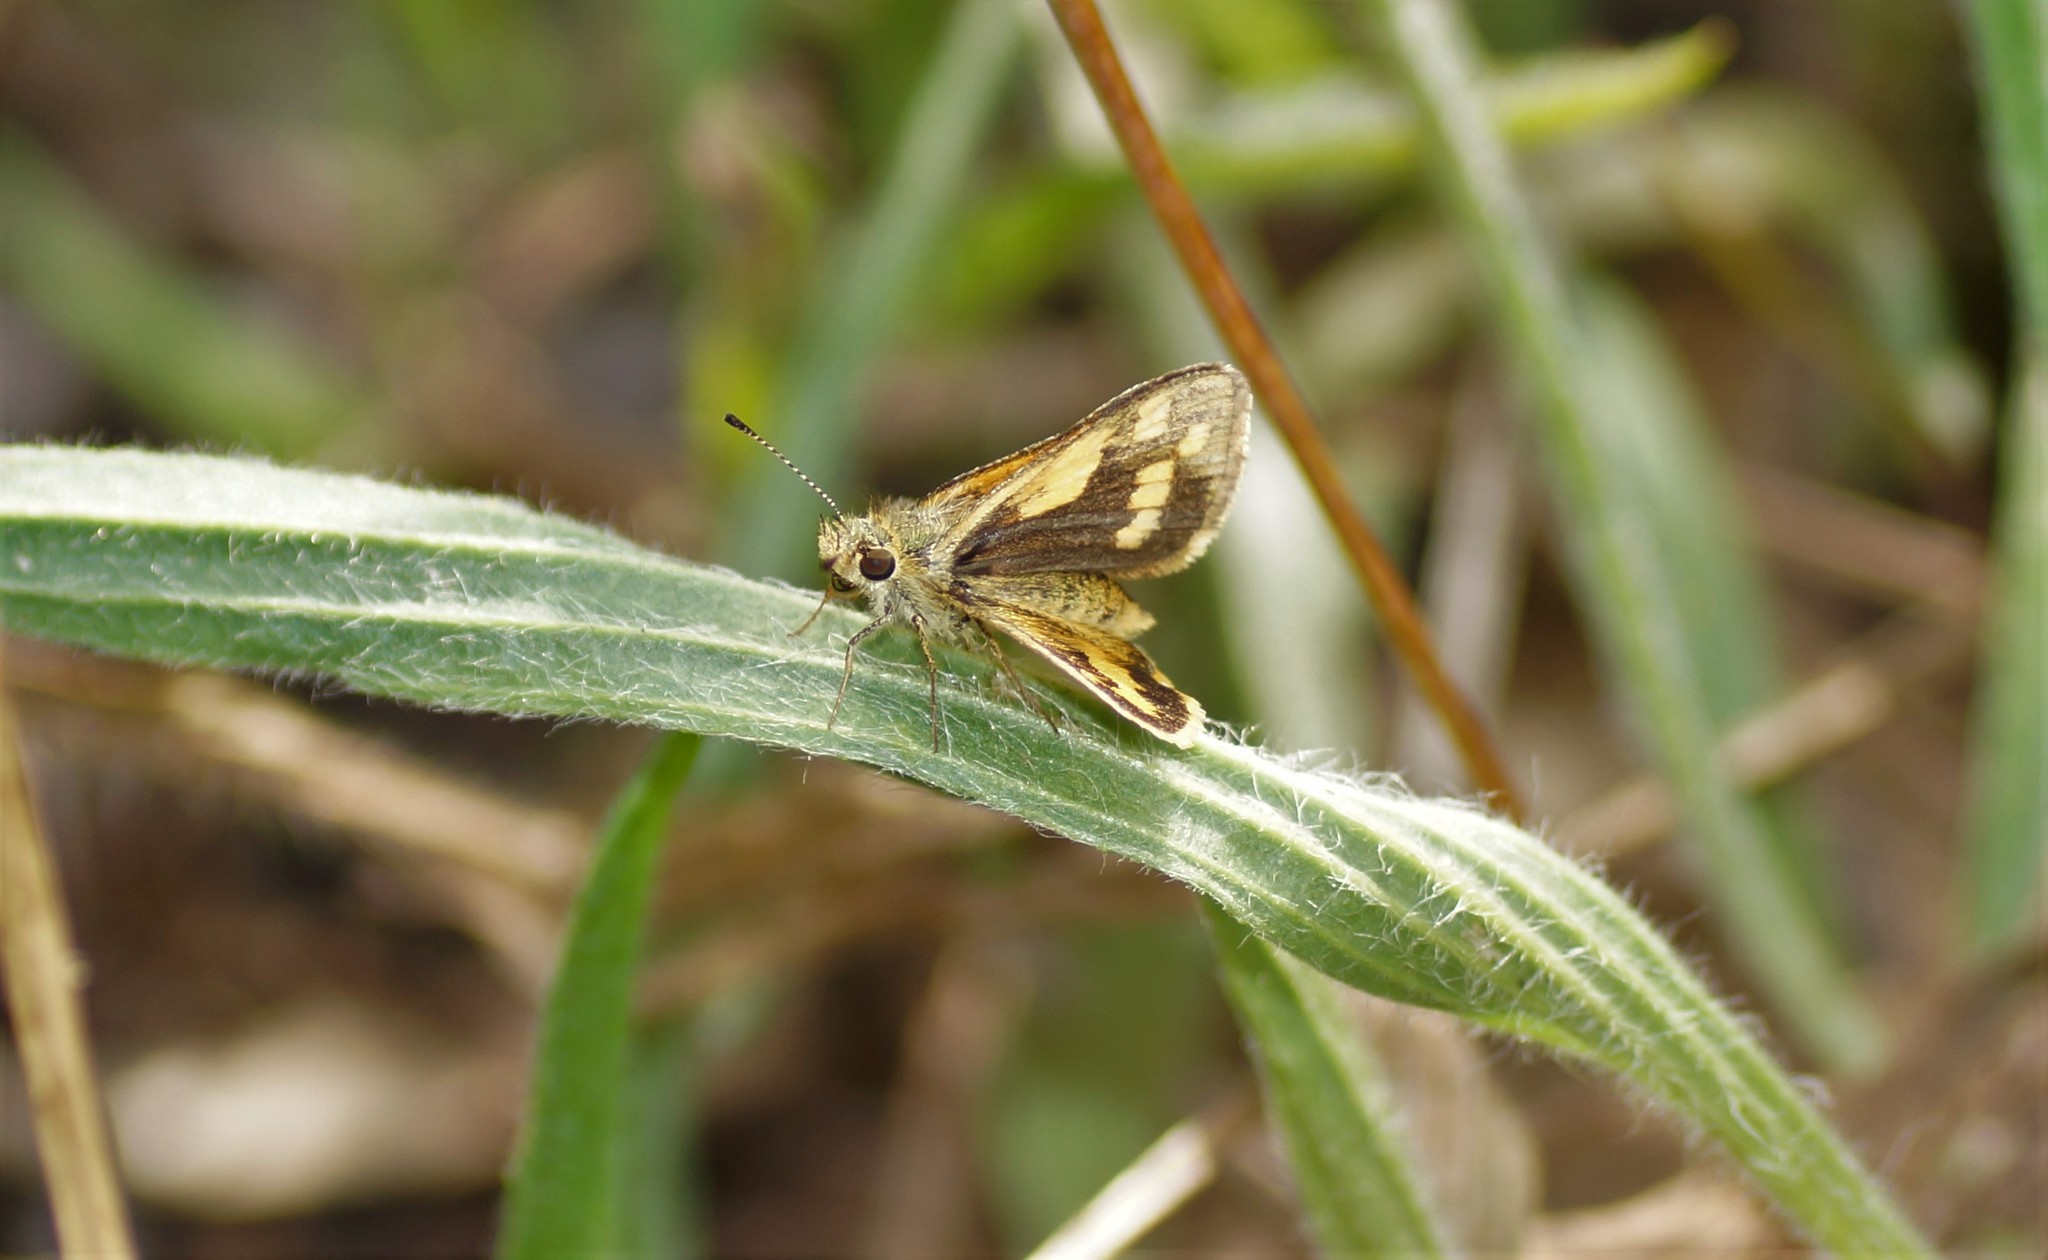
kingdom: Animalia
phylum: Arthropoda
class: Insecta
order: Lepidoptera
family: Hesperiidae
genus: Ocybadistes
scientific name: Ocybadistes walkeri
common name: Yellow-banded dart
